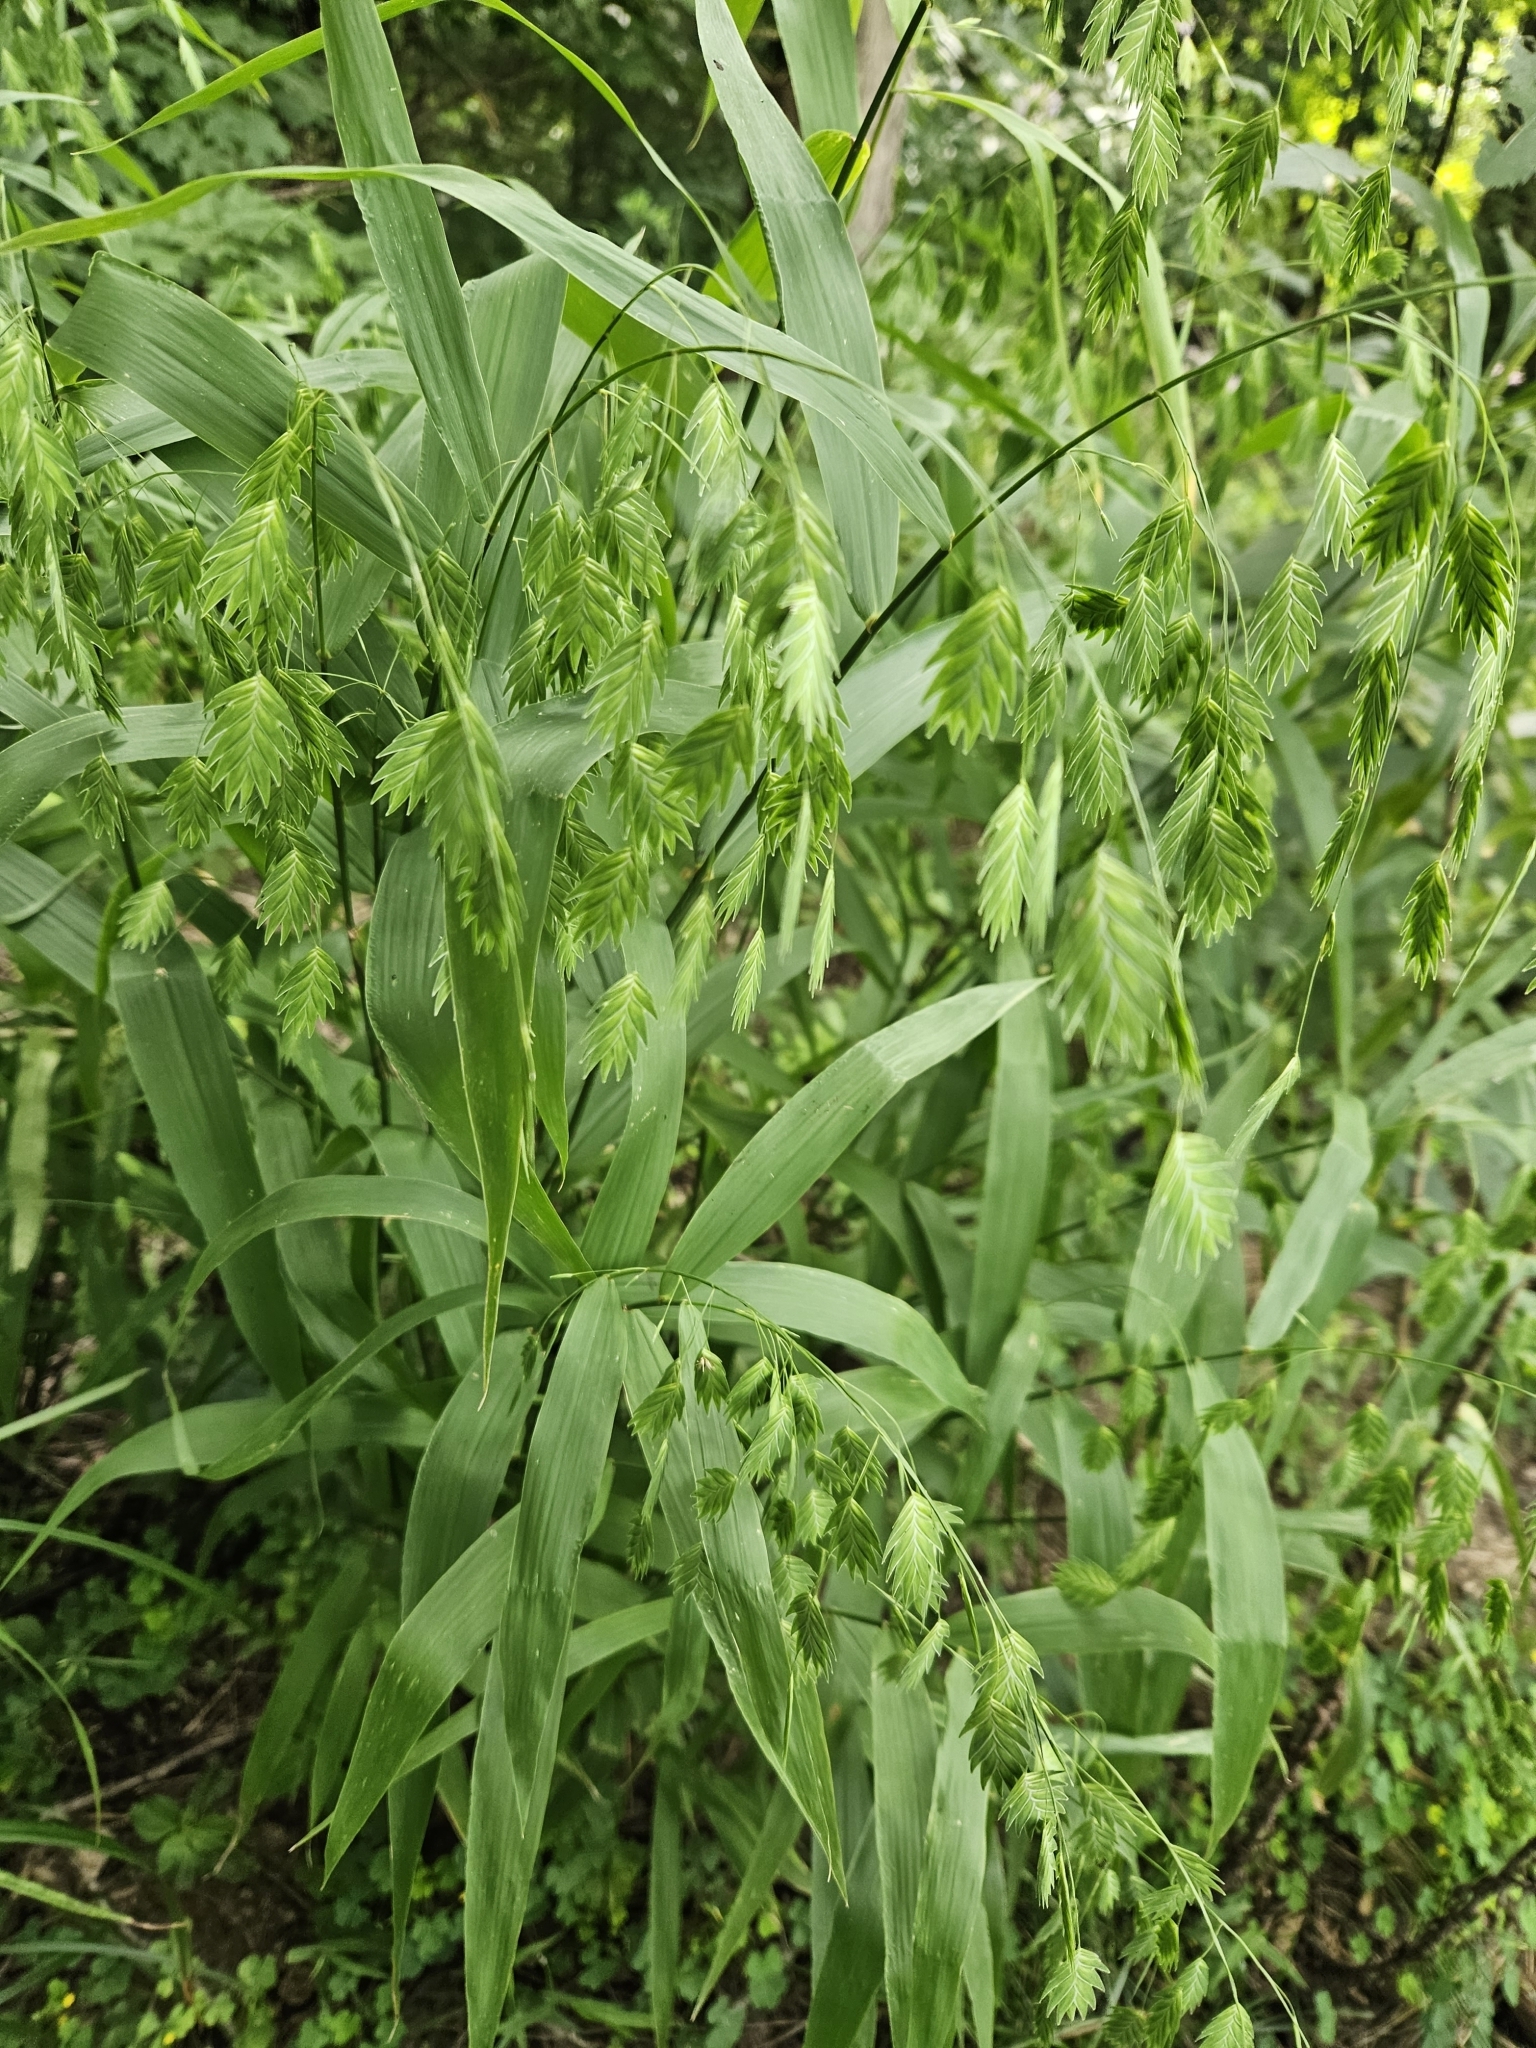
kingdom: Plantae
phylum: Tracheophyta
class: Liliopsida
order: Poales
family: Poaceae
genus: Chasmanthium
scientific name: Chasmanthium latifolium
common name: Broad-leaved chasmanthium
